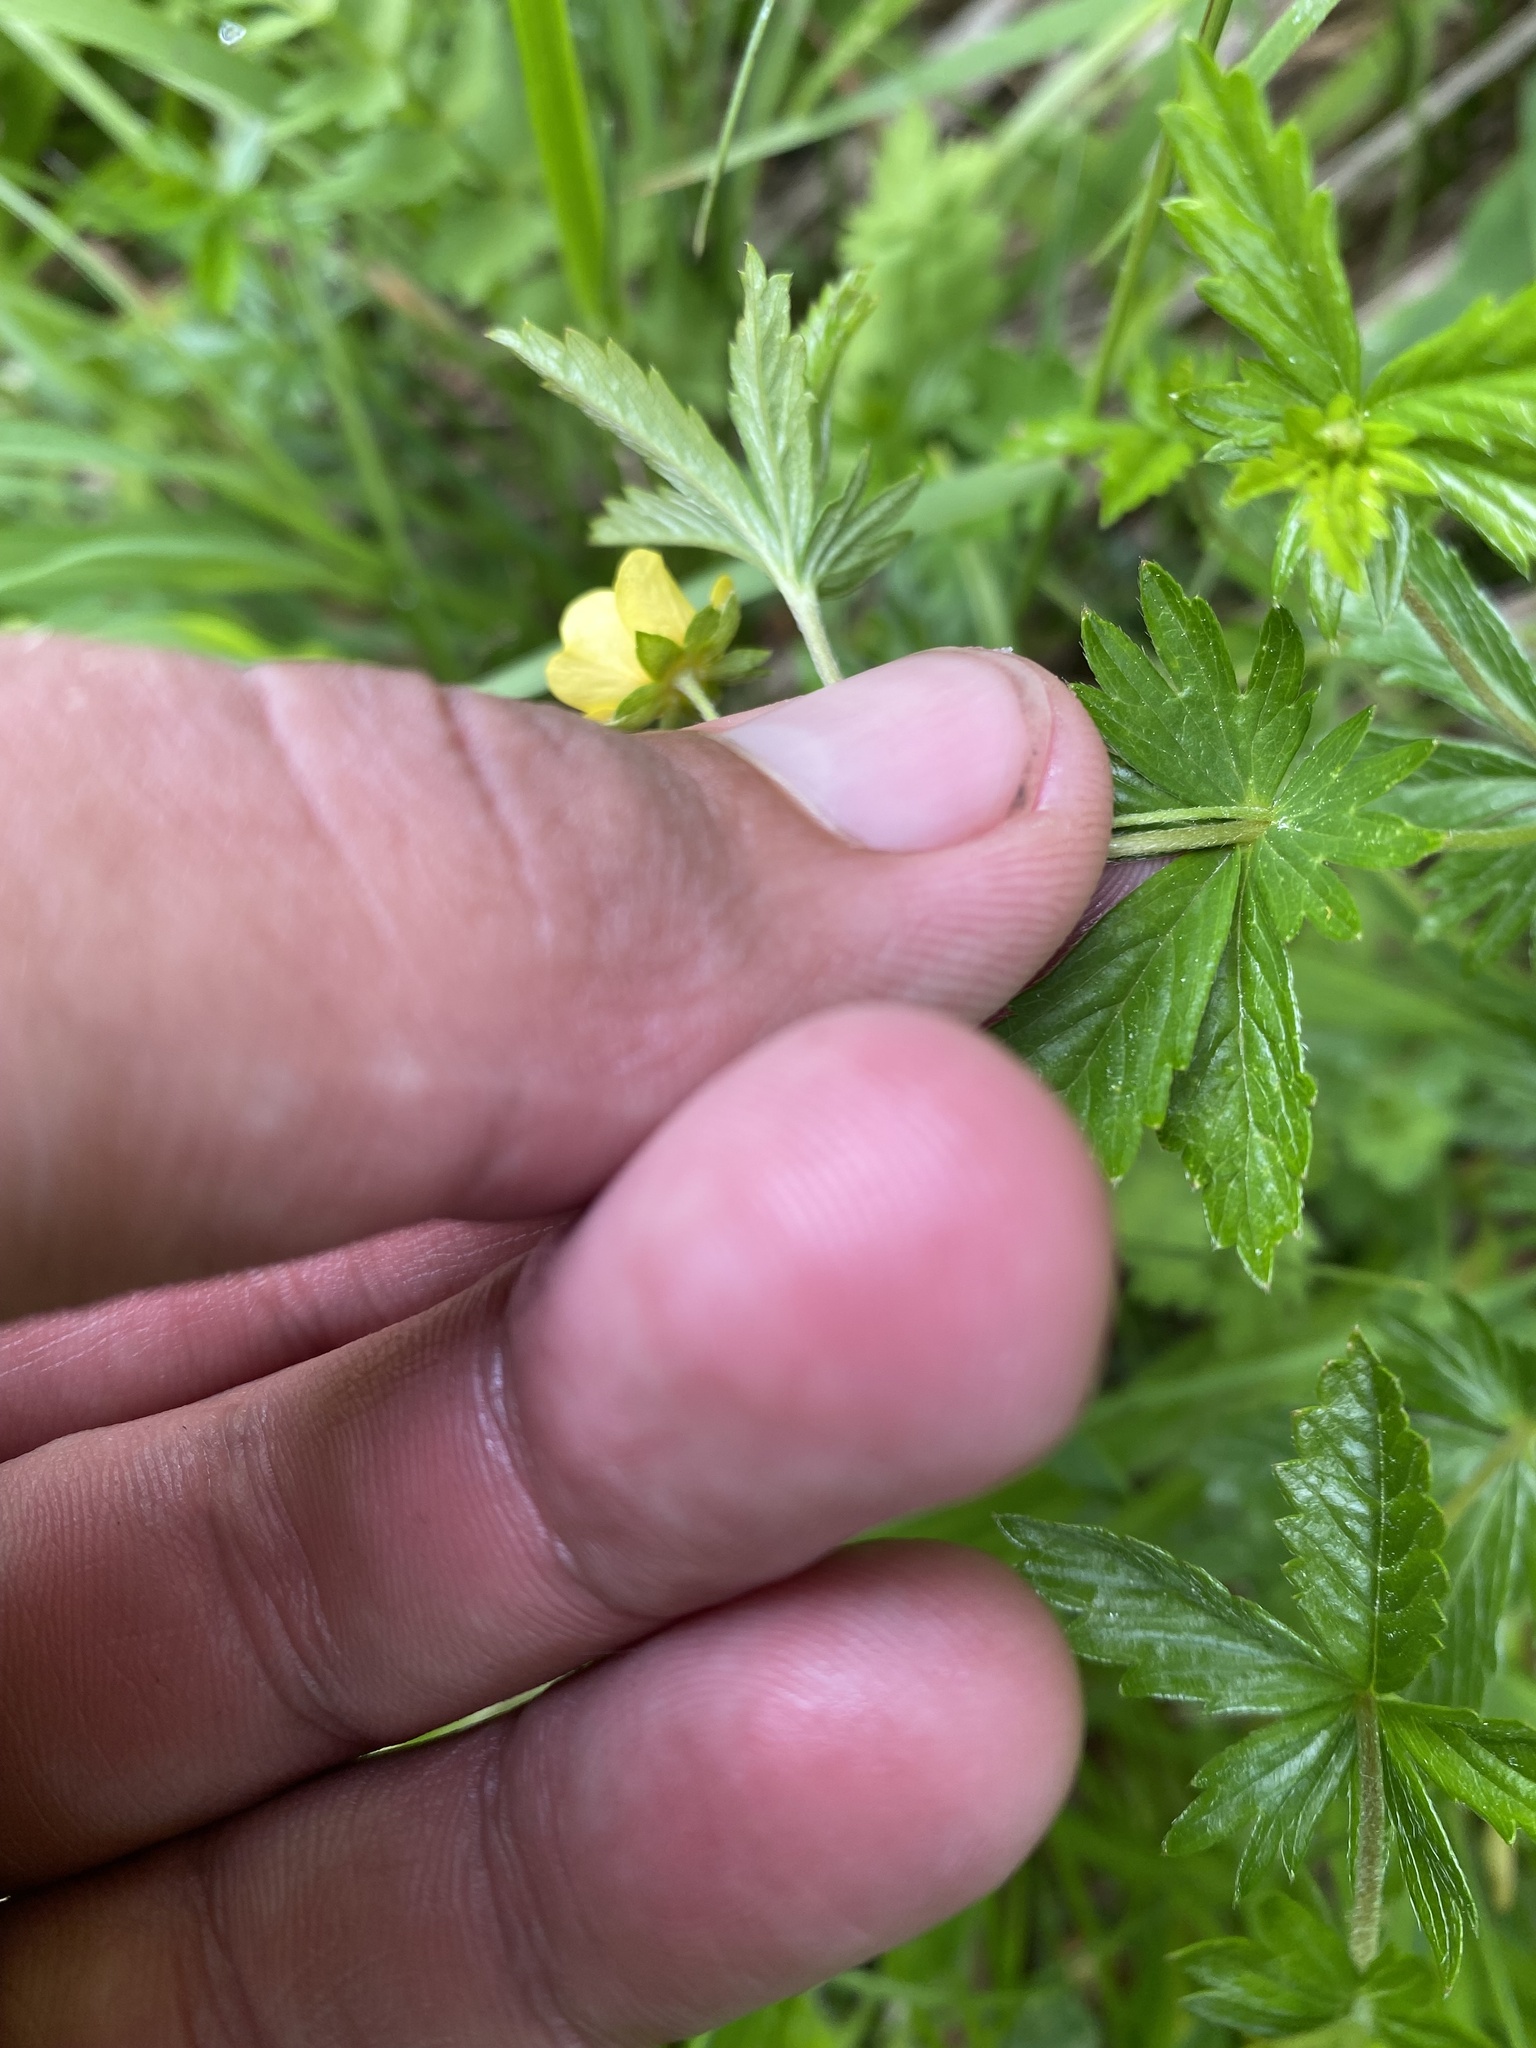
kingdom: Plantae
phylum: Tracheophyta
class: Magnoliopsida
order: Rosales
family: Rosaceae
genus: Potentilla
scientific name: Potentilla erecta
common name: Tormentil
